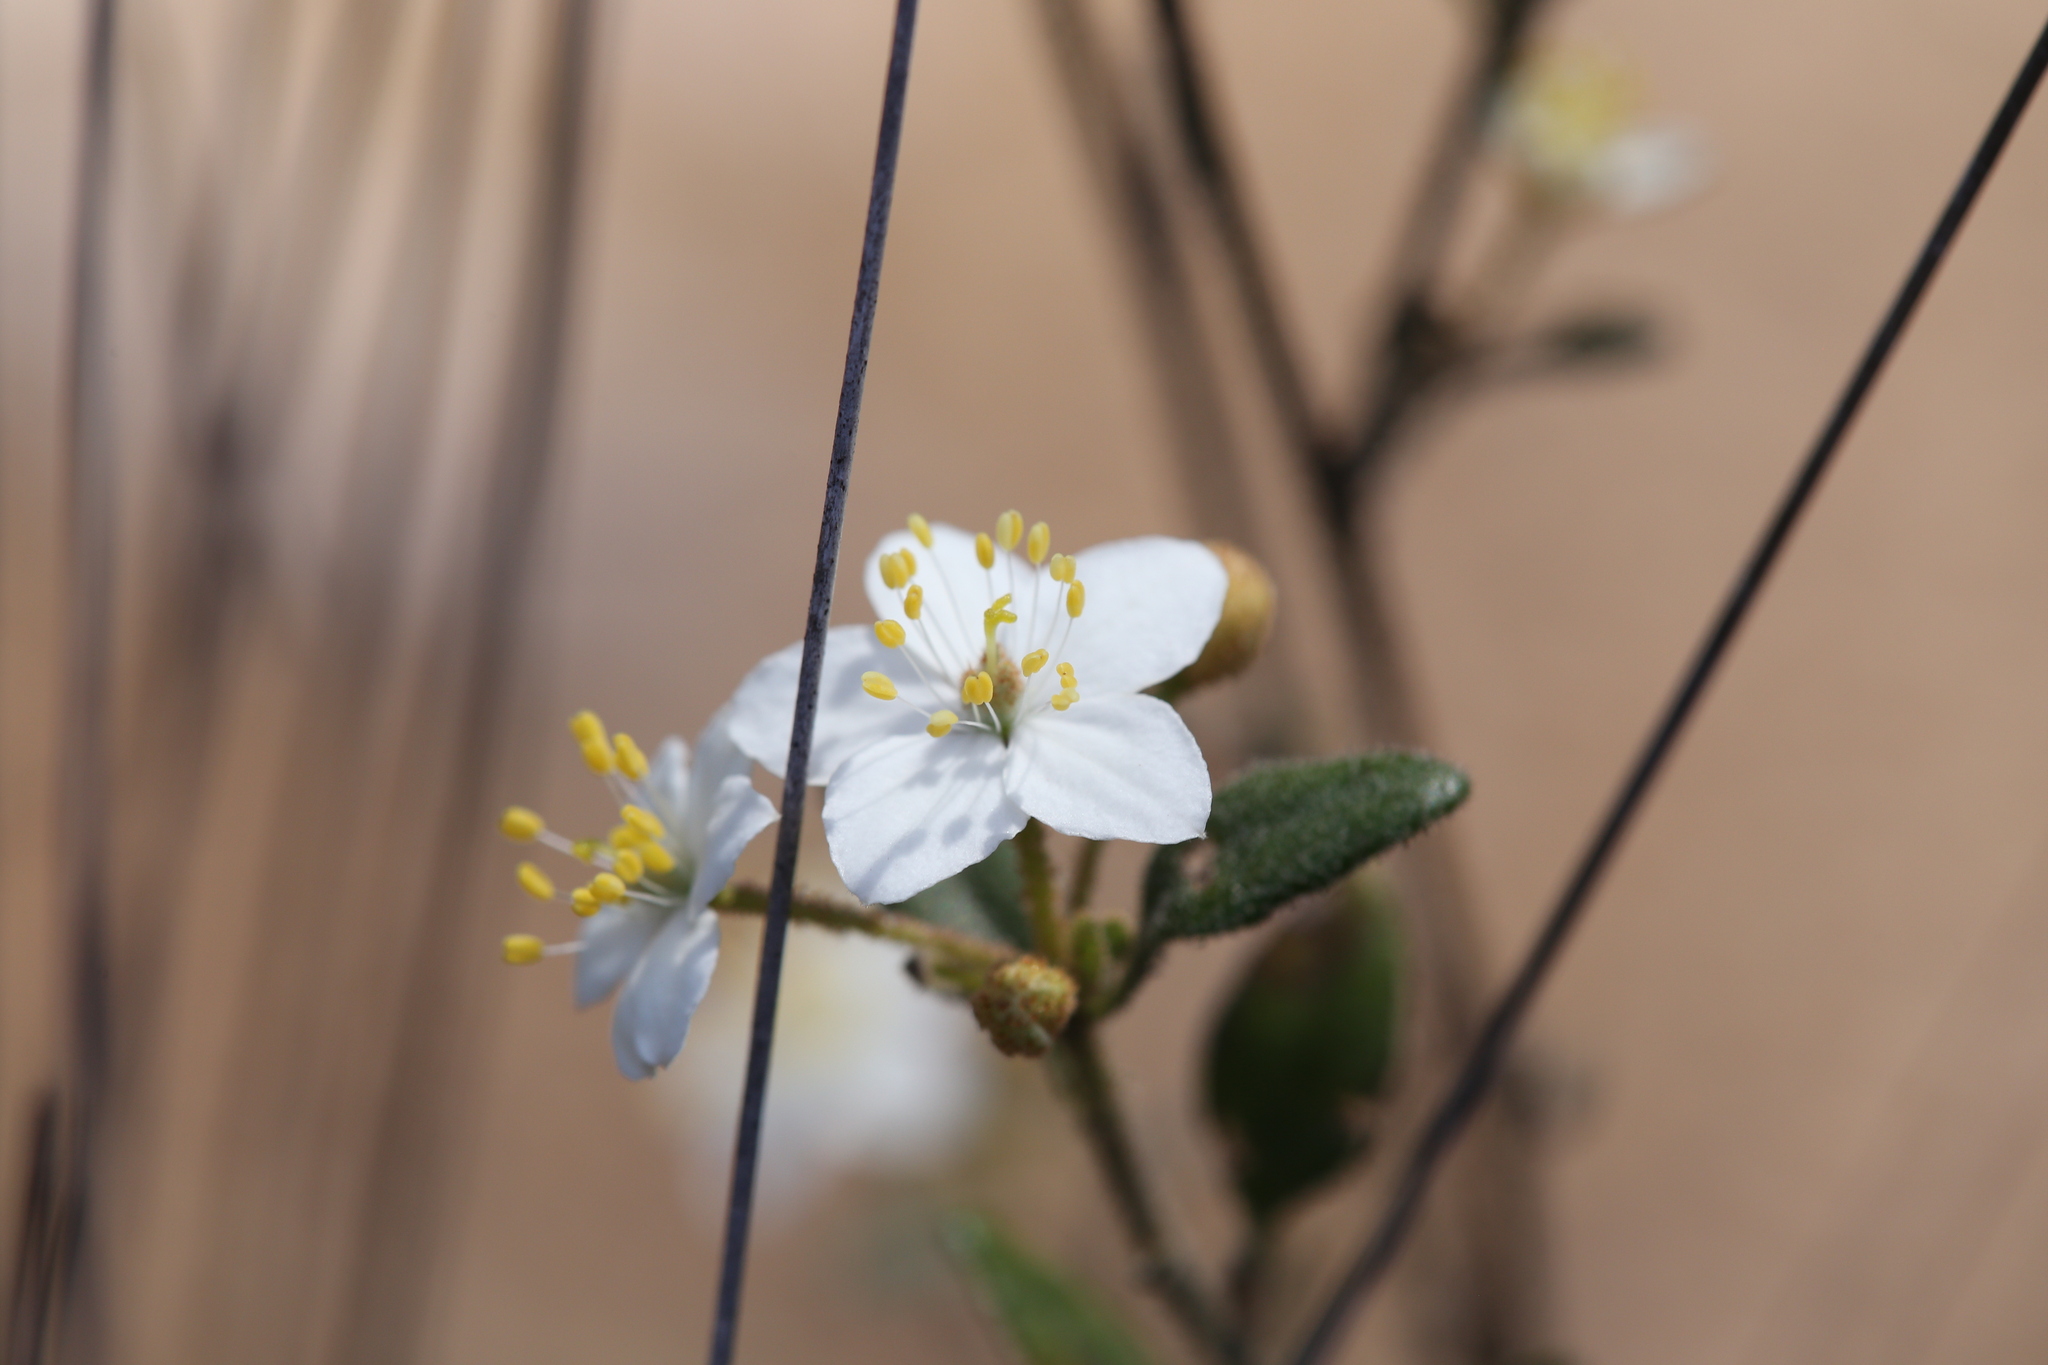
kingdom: Plantae
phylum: Tracheophyta
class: Magnoliopsida
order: Sapindales
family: Rutaceae
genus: Asterolasia
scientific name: Asterolasia pallida
